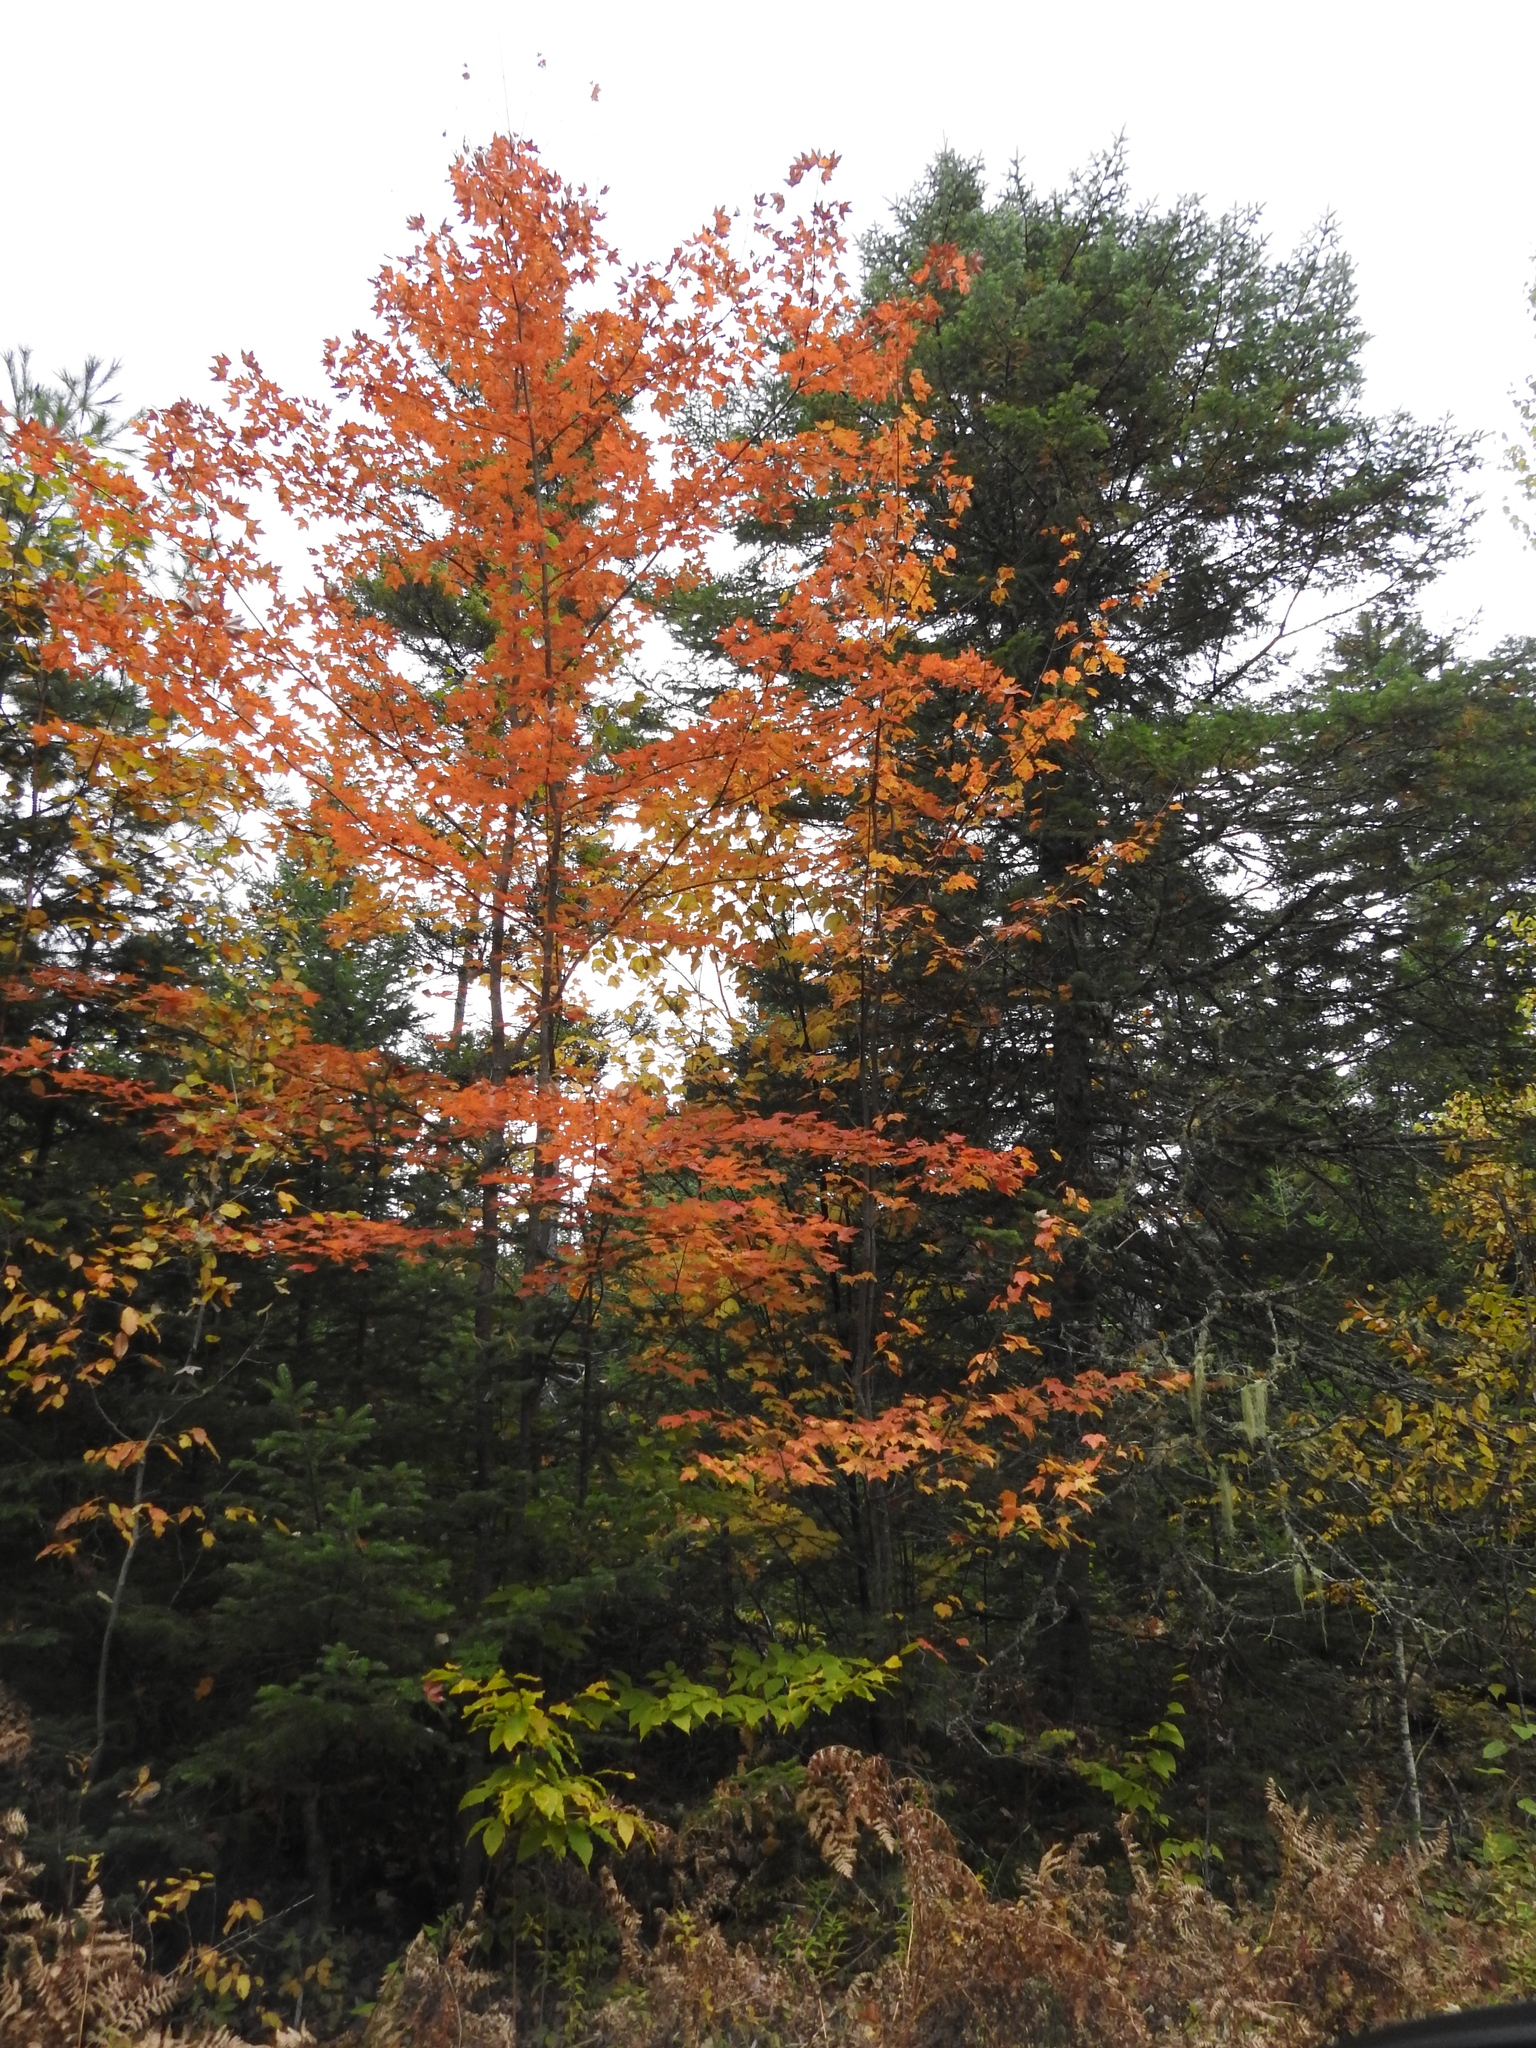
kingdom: Plantae
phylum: Tracheophyta
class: Magnoliopsida
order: Sapindales
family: Sapindaceae
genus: Acer
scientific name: Acer rubrum
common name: Red maple
